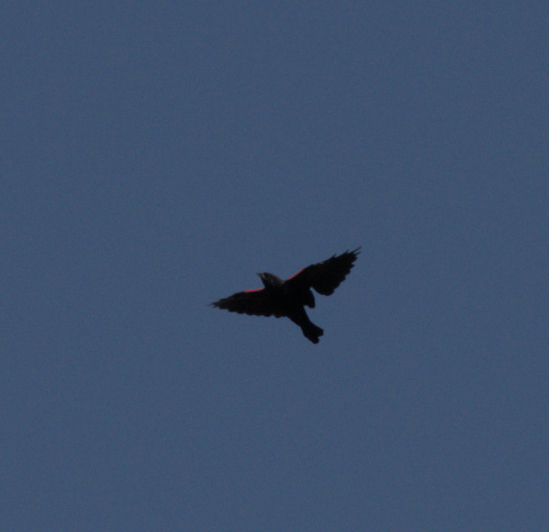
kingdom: Animalia
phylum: Chordata
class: Aves
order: Passeriformes
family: Icteridae
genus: Agelaius
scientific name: Agelaius phoeniceus
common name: Red-winged blackbird
